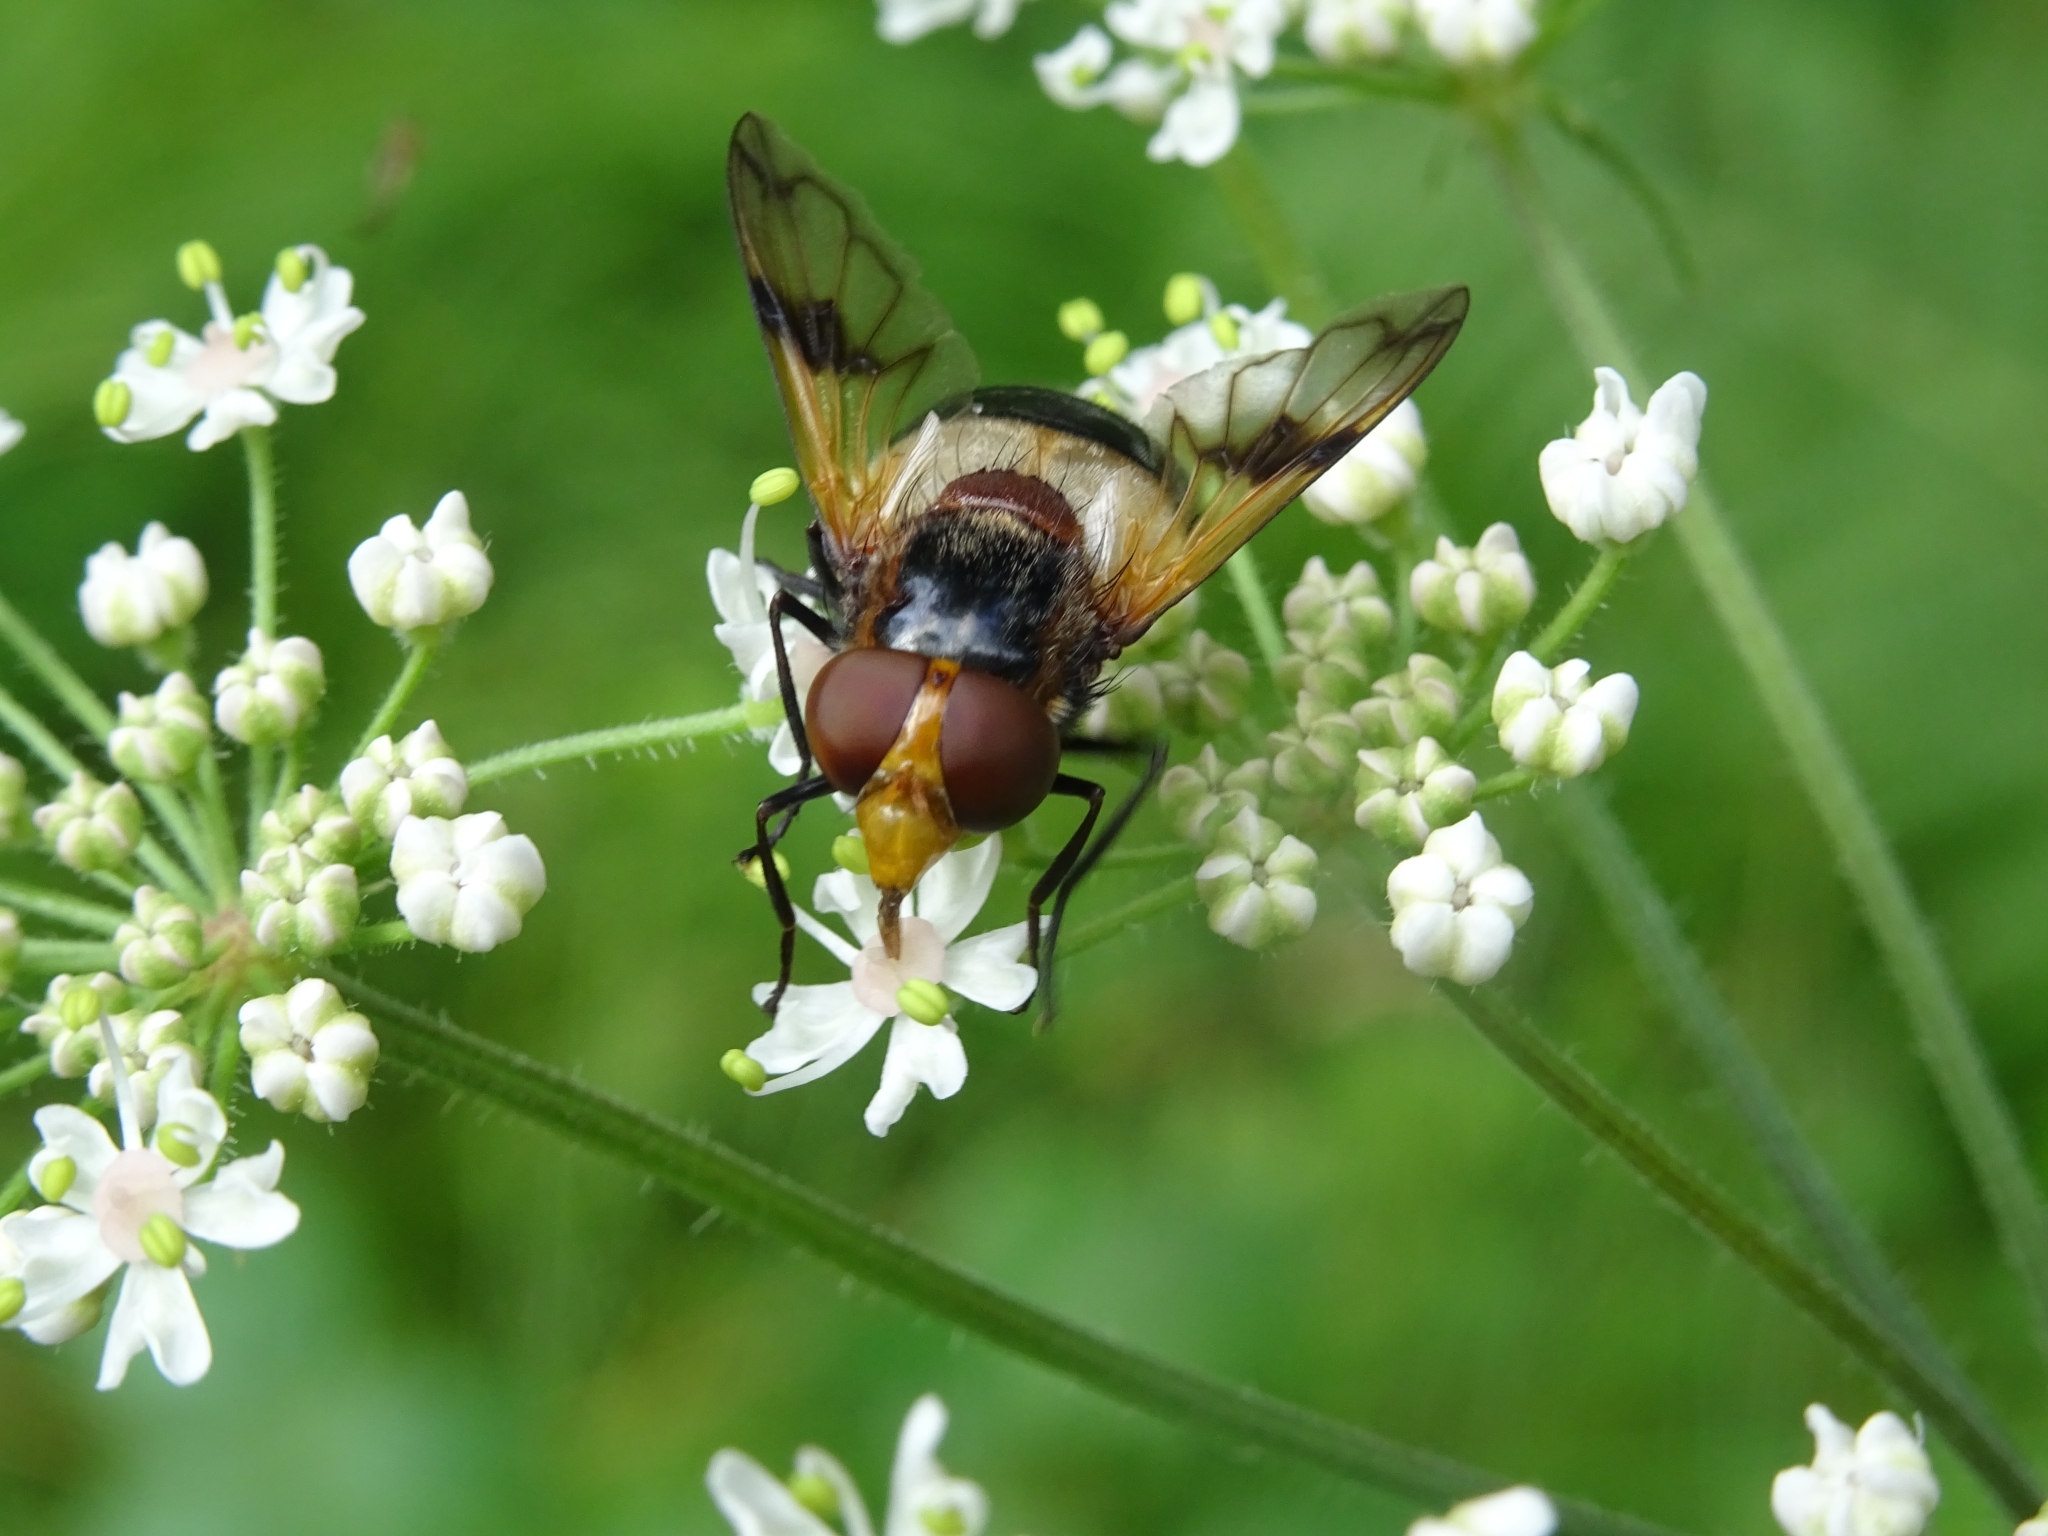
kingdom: Animalia
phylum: Arthropoda
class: Insecta
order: Diptera
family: Syrphidae
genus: Volucella
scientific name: Volucella pellucens
